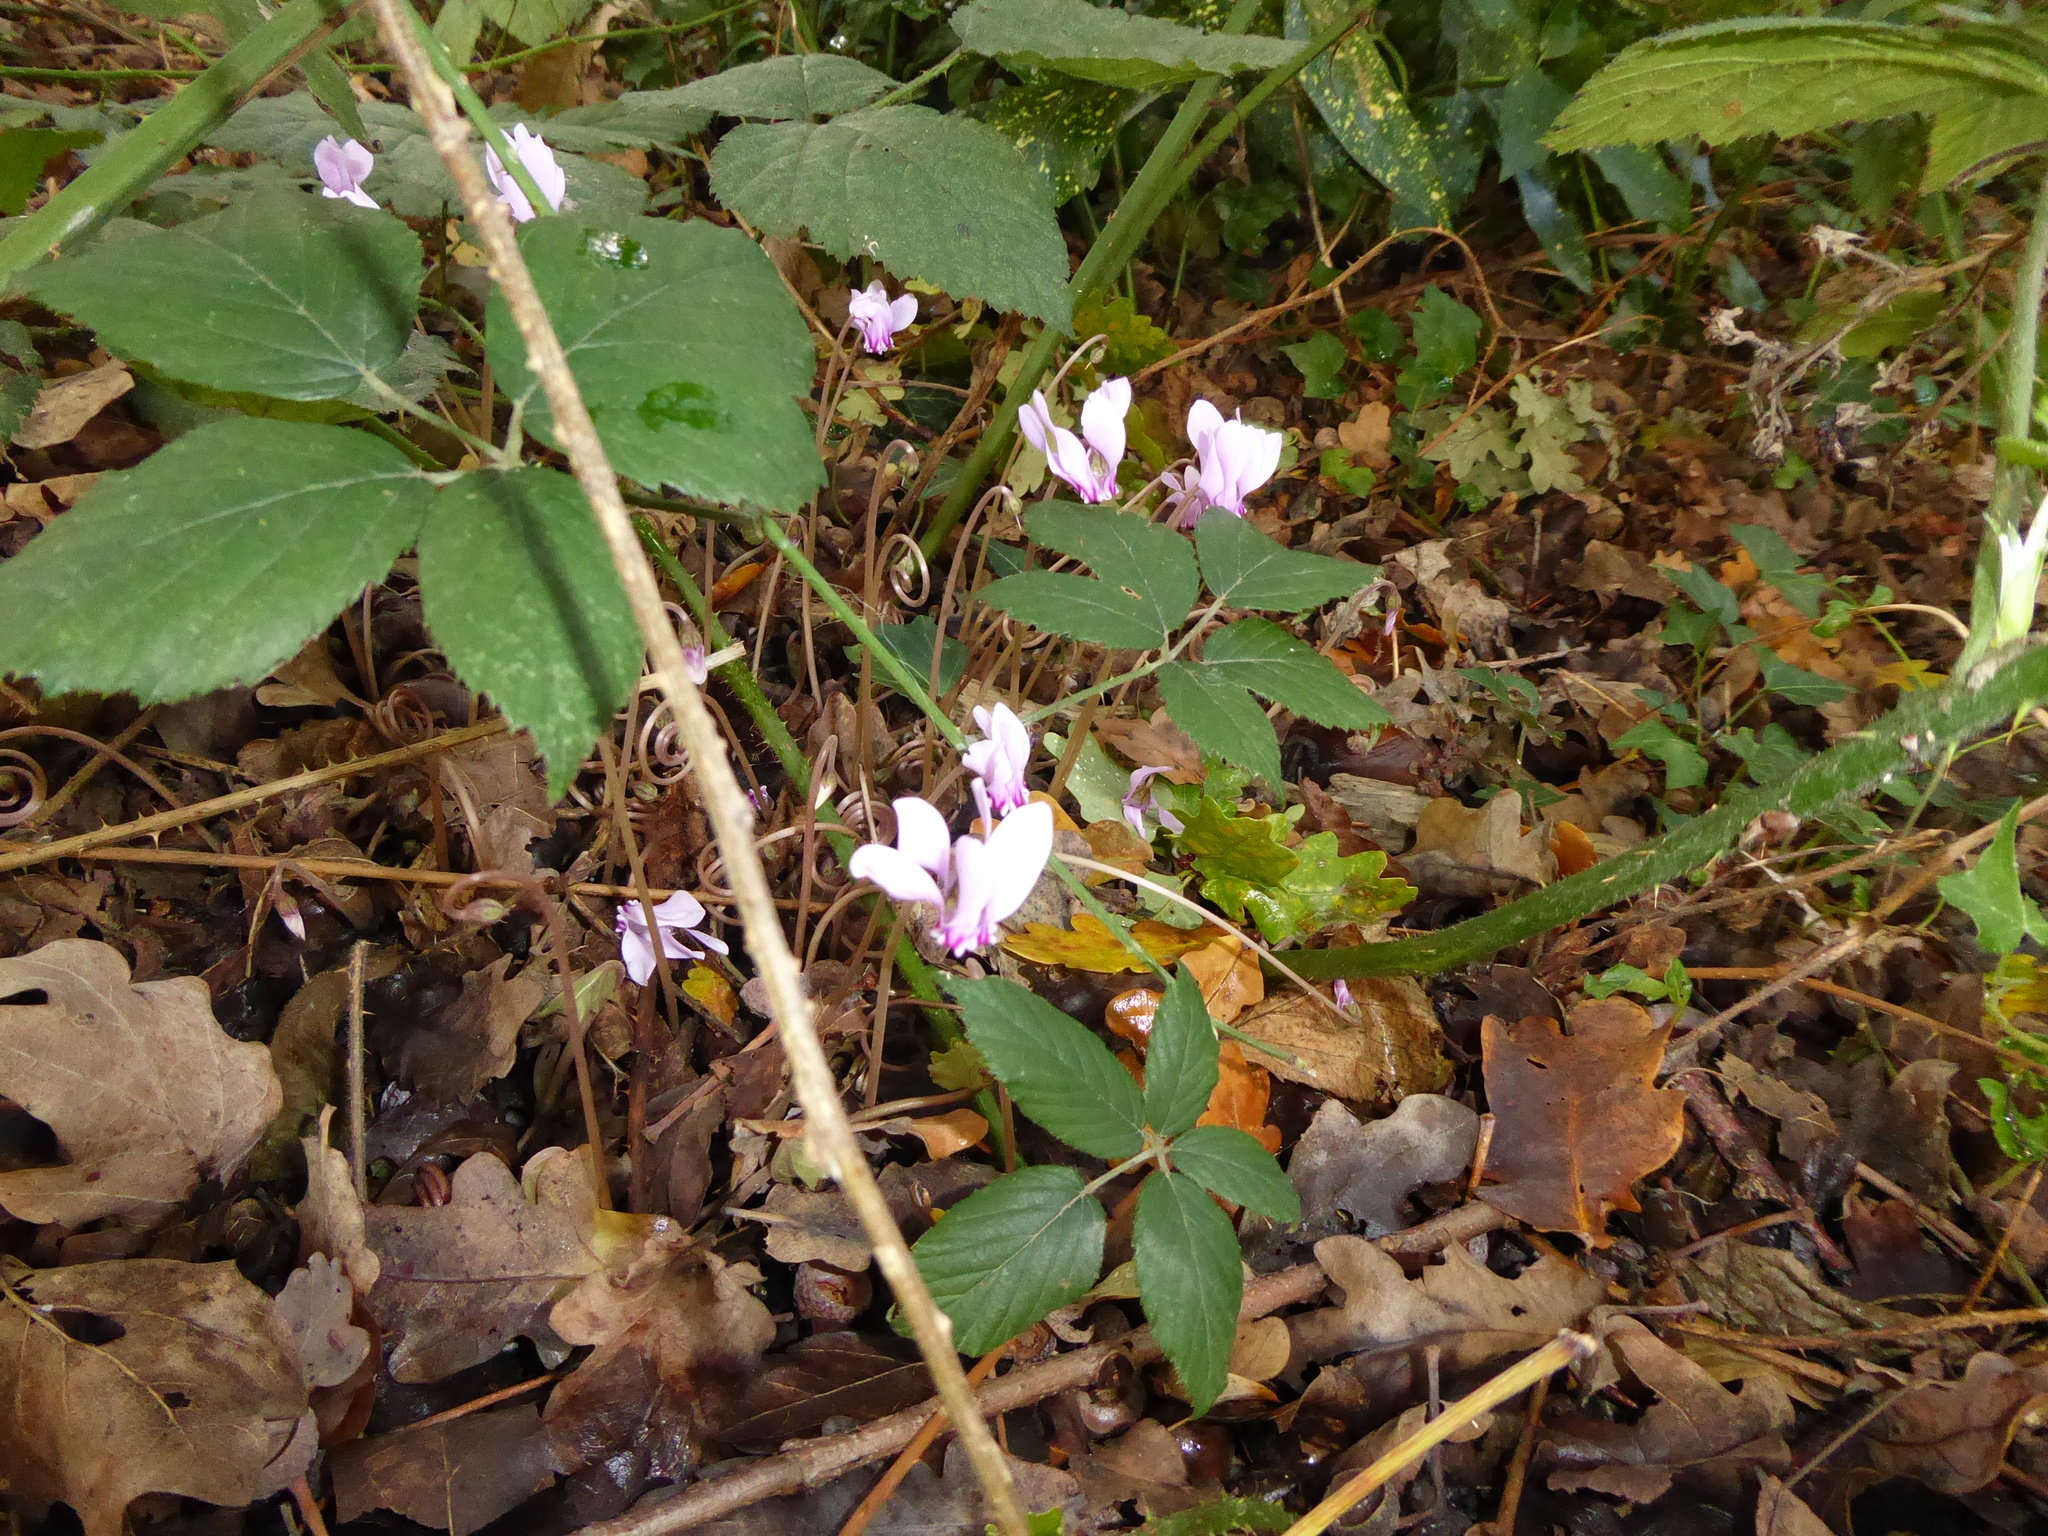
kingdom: Plantae
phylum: Tracheophyta
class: Magnoliopsida
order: Ericales
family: Primulaceae
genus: Cyclamen
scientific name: Cyclamen hederifolium
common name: Sowbread
